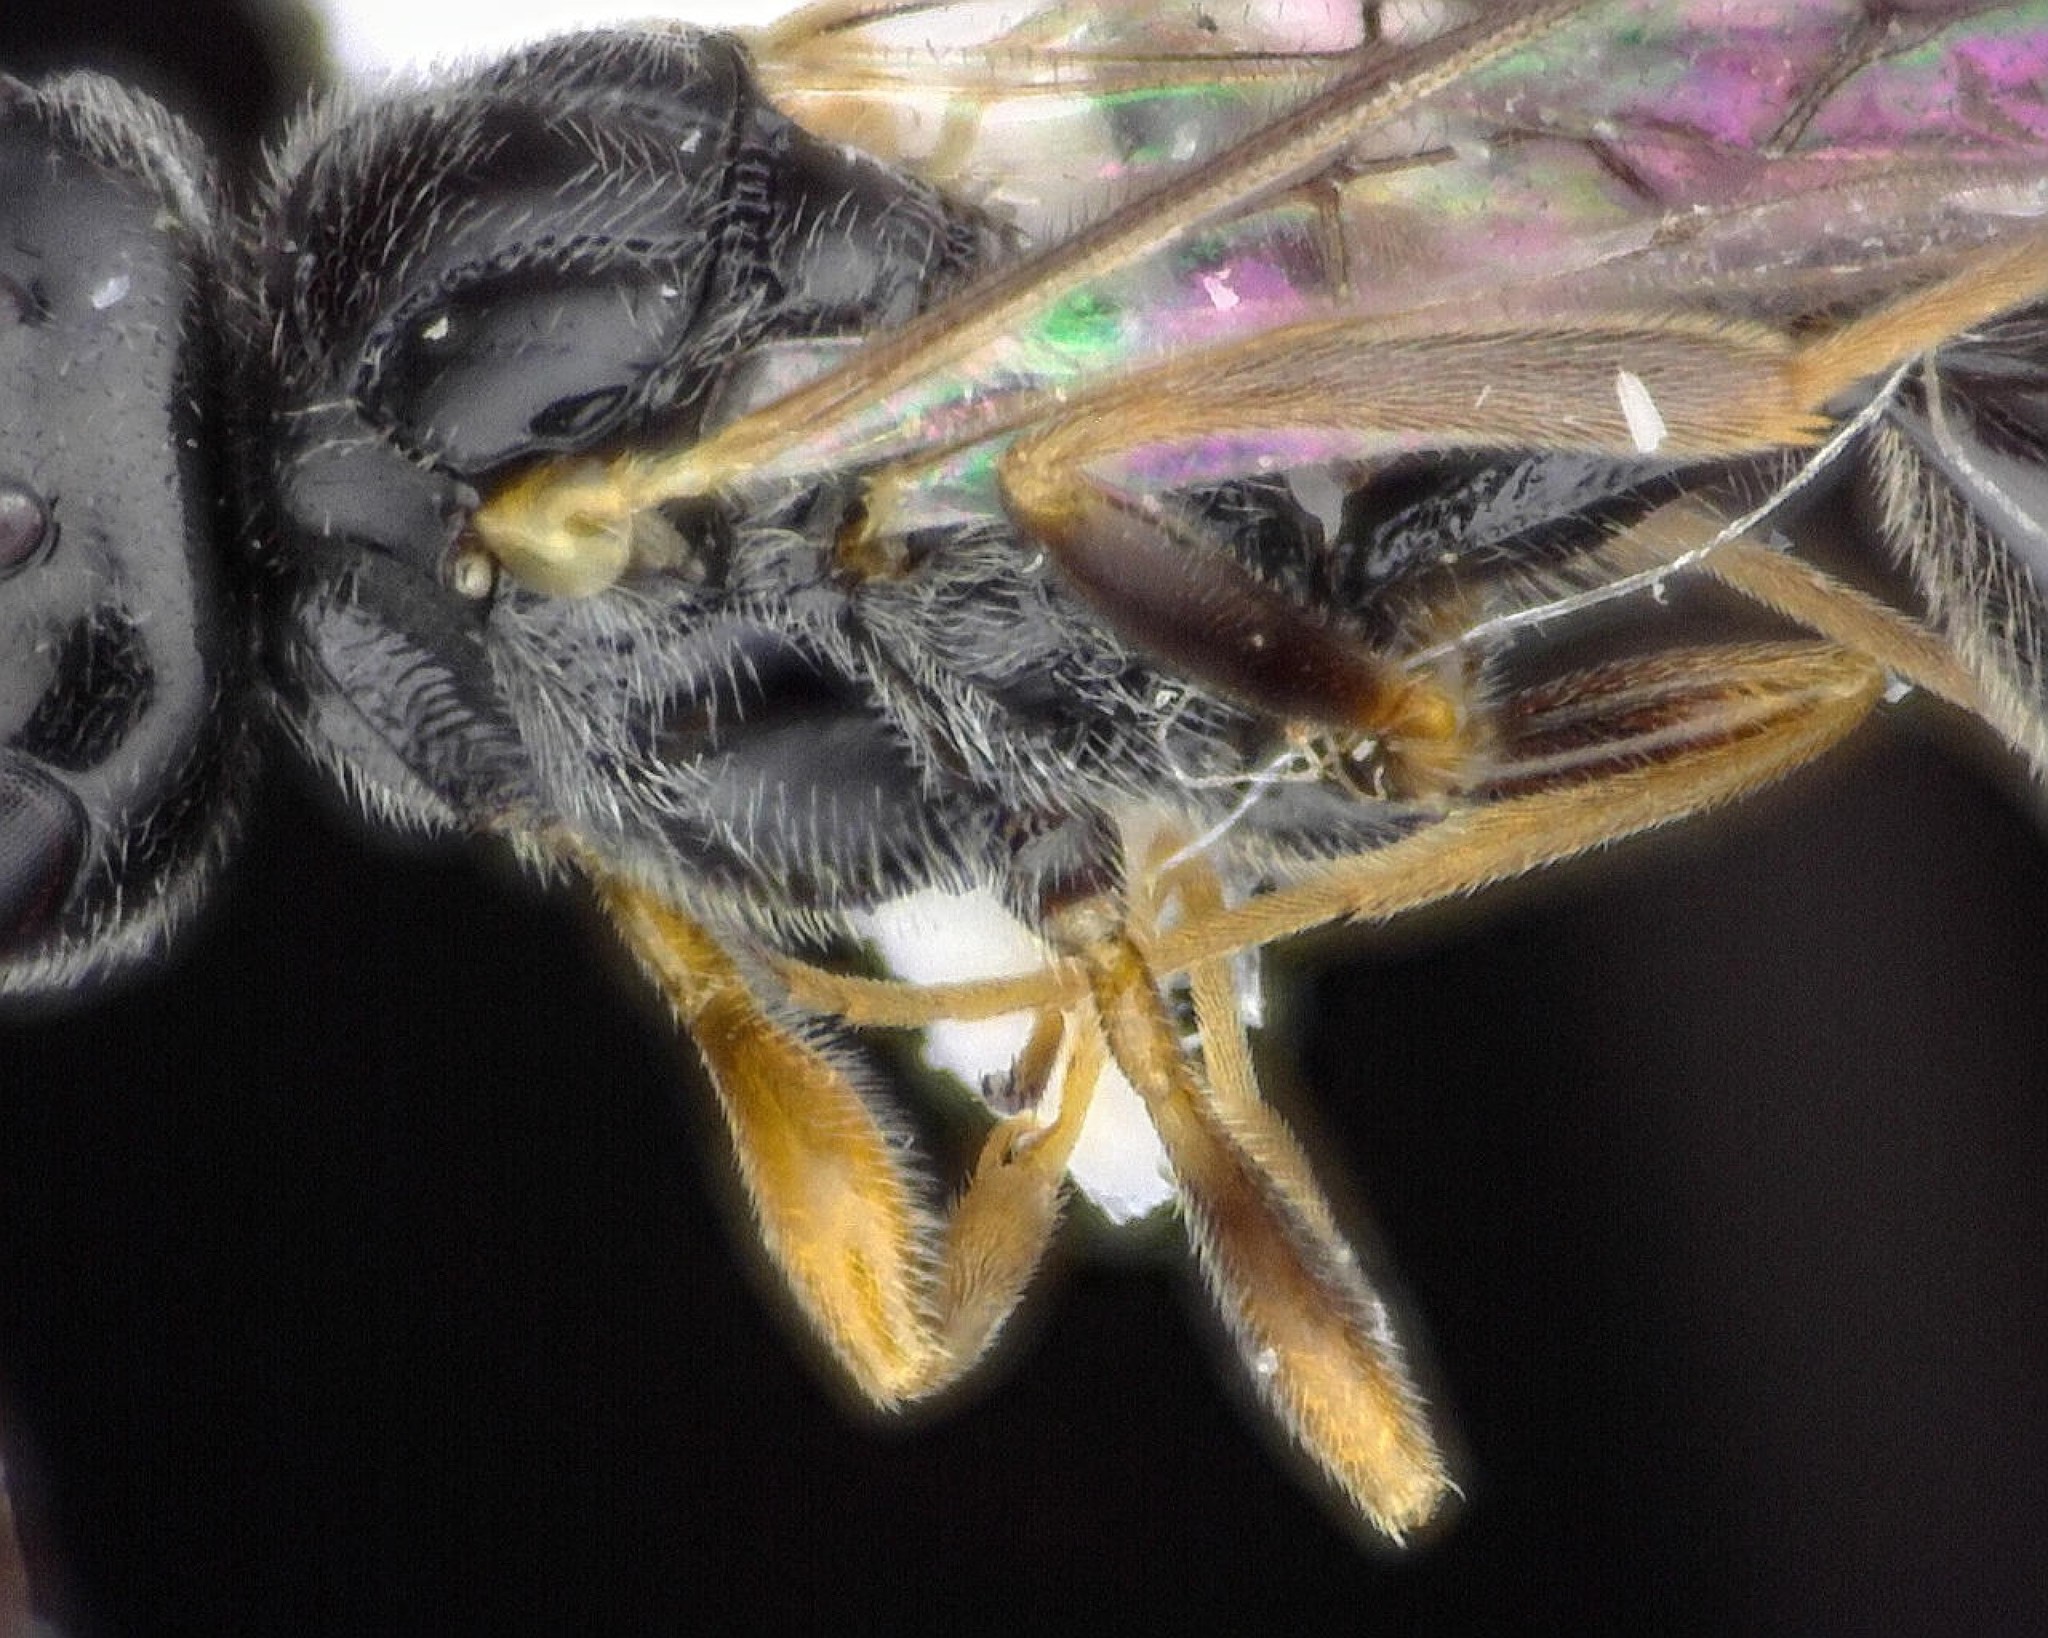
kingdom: Animalia
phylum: Arthropoda
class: Insecta
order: Hymenoptera
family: Heloridae
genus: Helorus
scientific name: Helorus anomalipes
